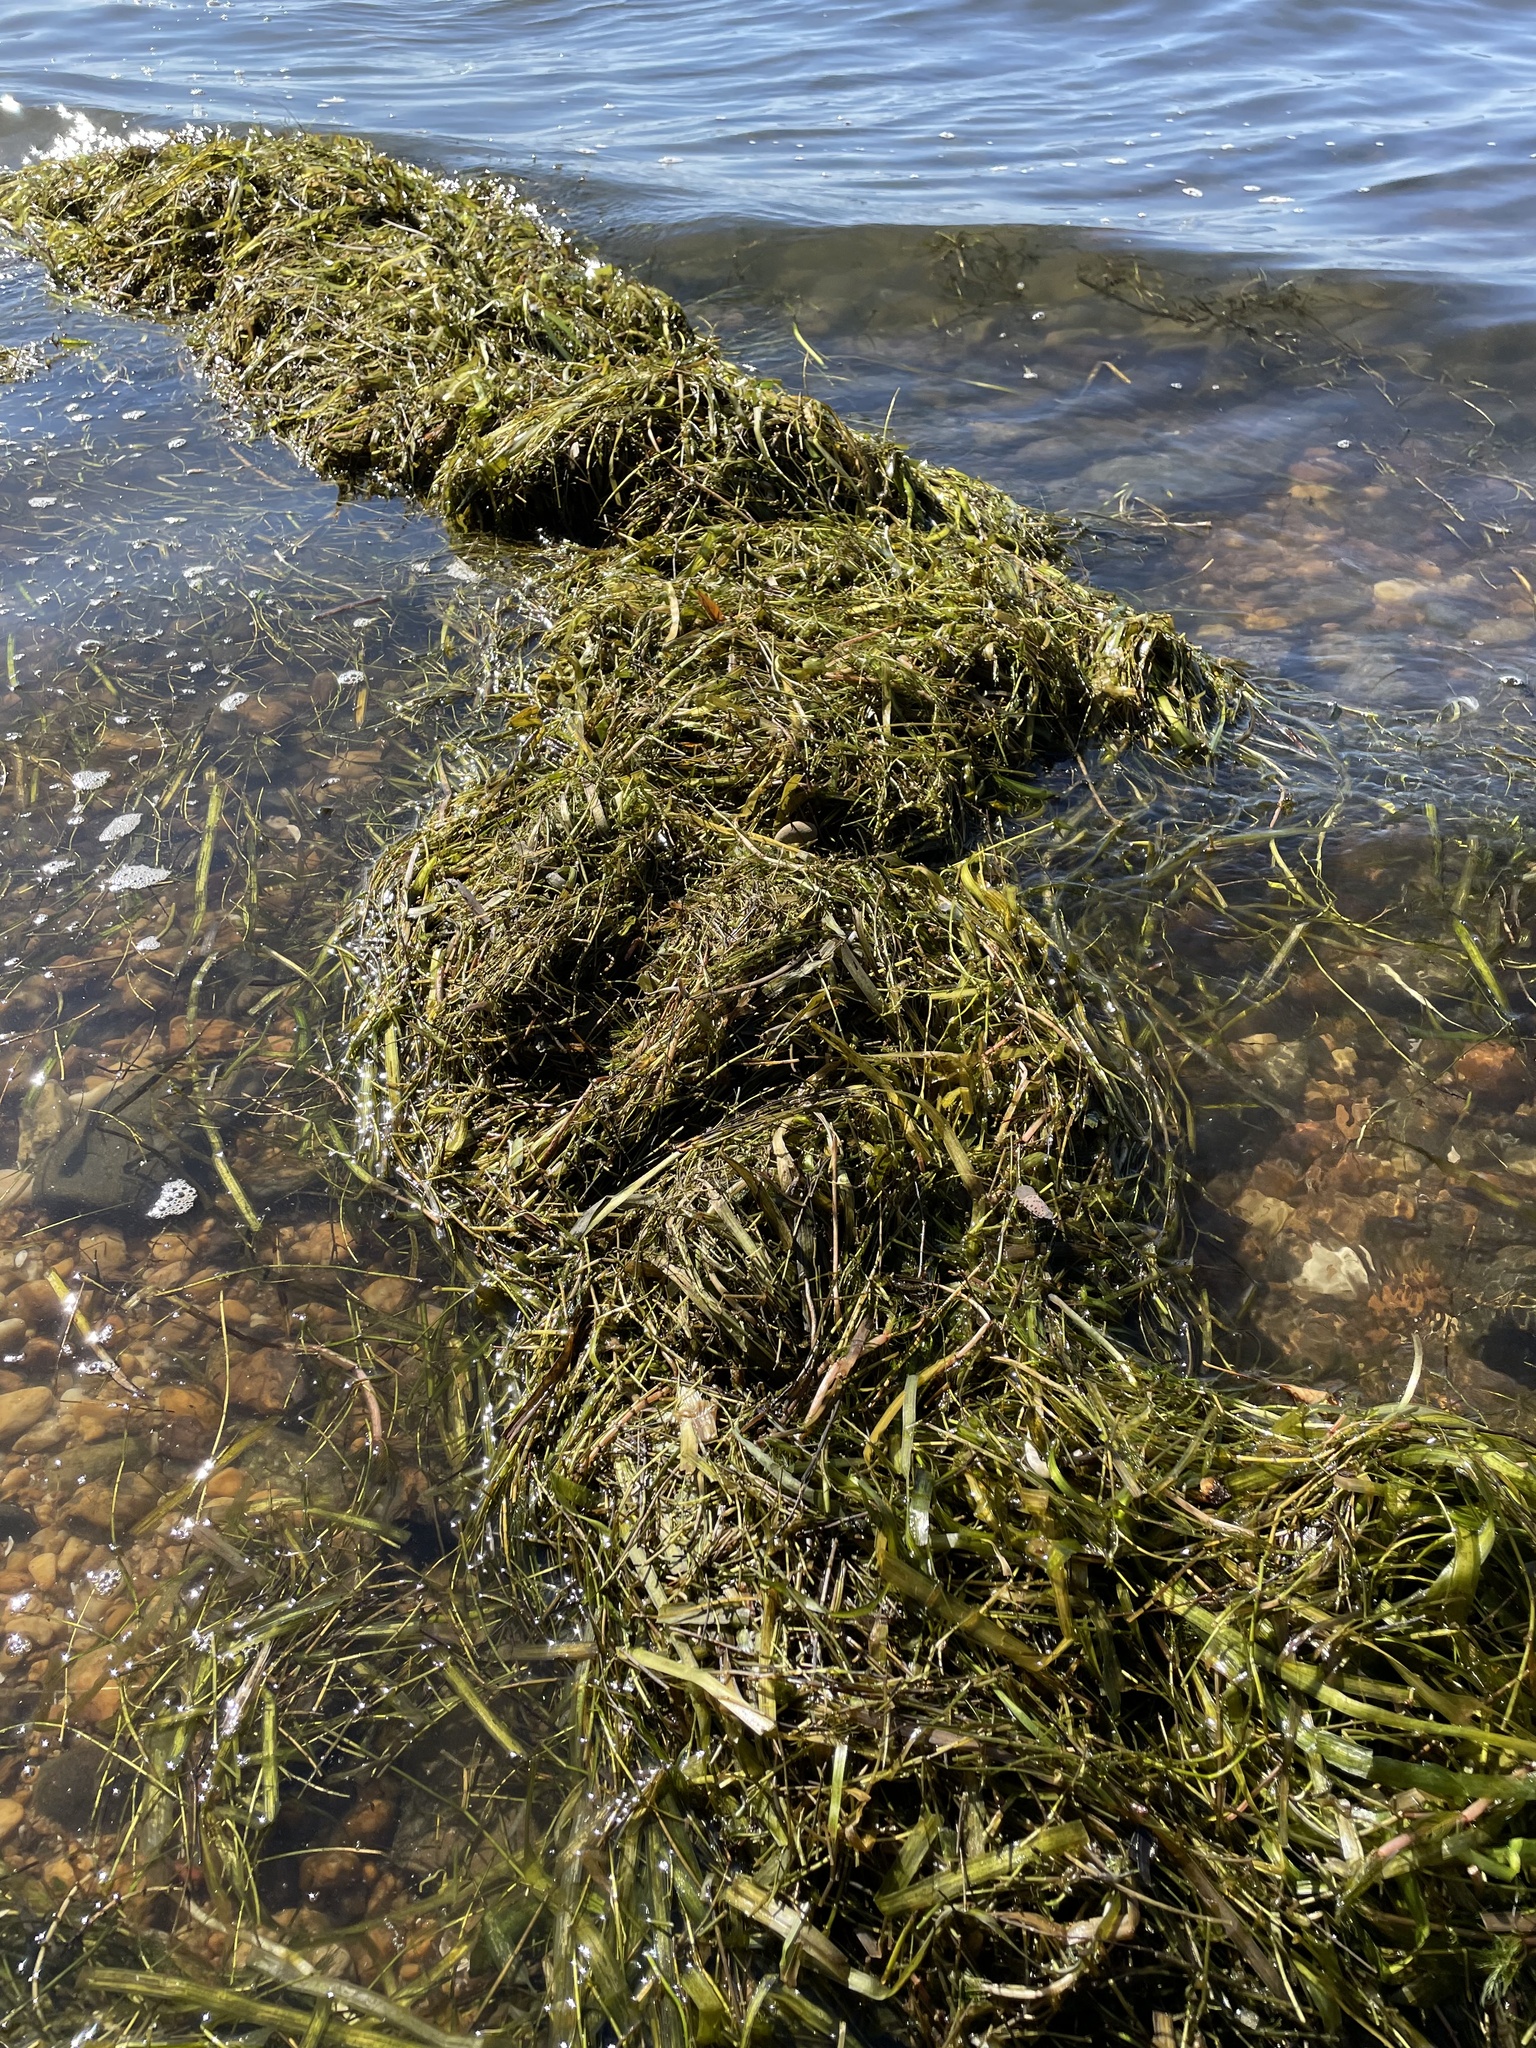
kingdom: Plantae
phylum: Tracheophyta
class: Magnoliopsida
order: Saxifragales
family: Haloragaceae
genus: Myriophyllum
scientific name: Myriophyllum spicatum
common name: Spiked water-milfoil
